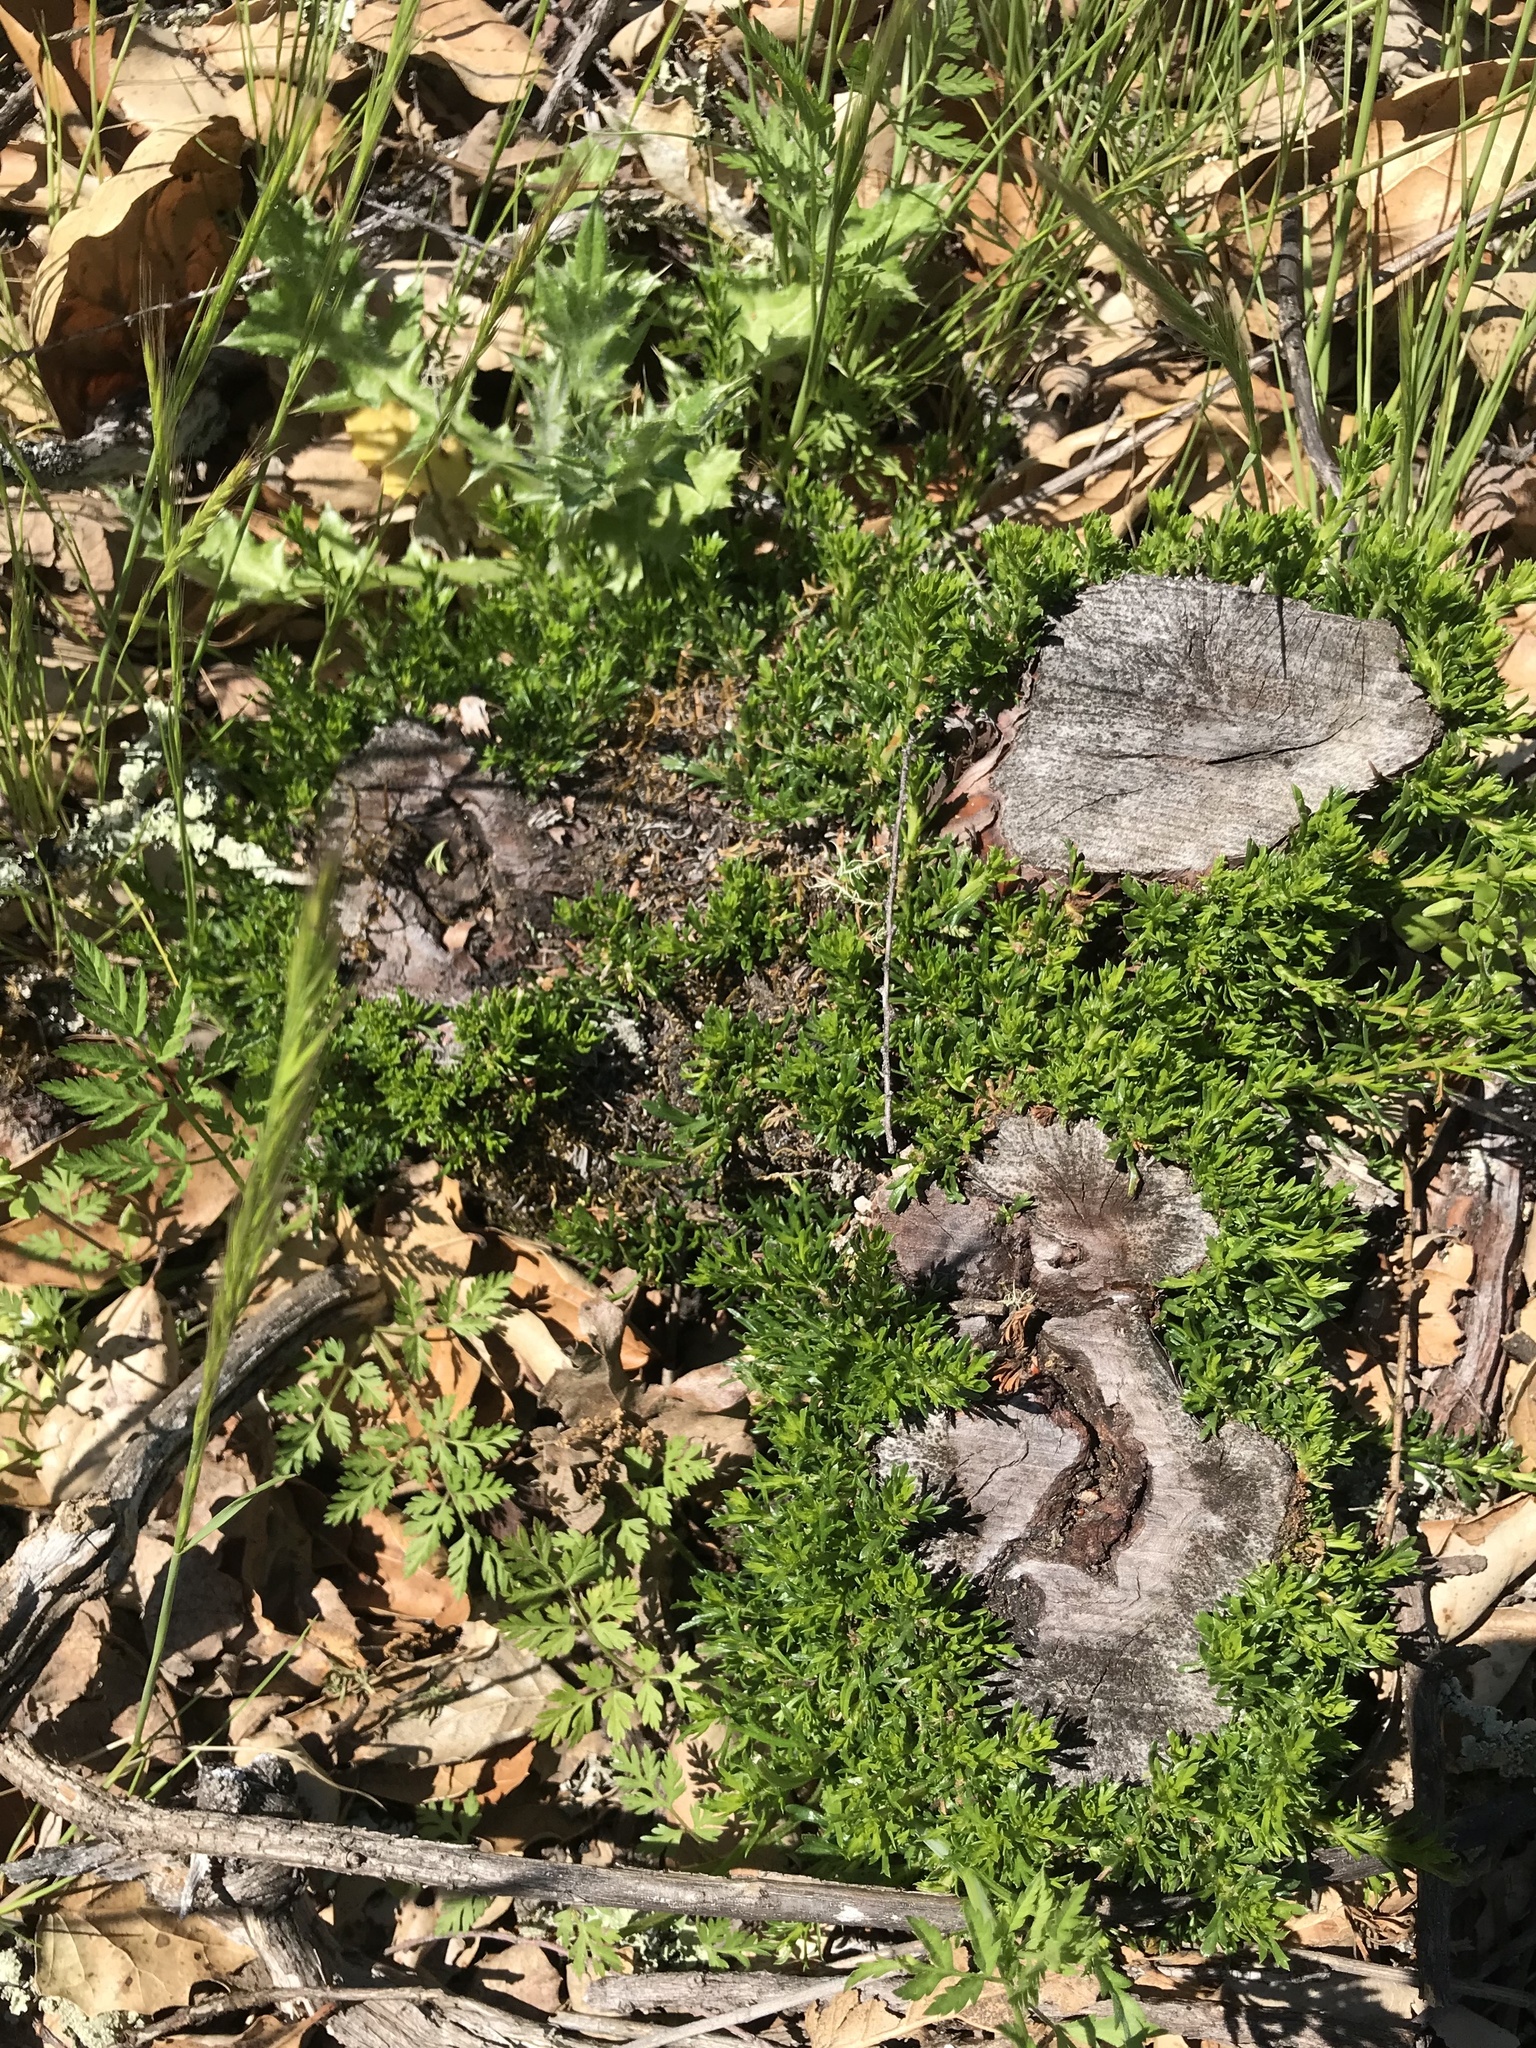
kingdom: Plantae
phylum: Tracheophyta
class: Magnoliopsida
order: Rosales
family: Rosaceae
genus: Adenostoma
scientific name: Adenostoma fasciculatum
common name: Chamise
